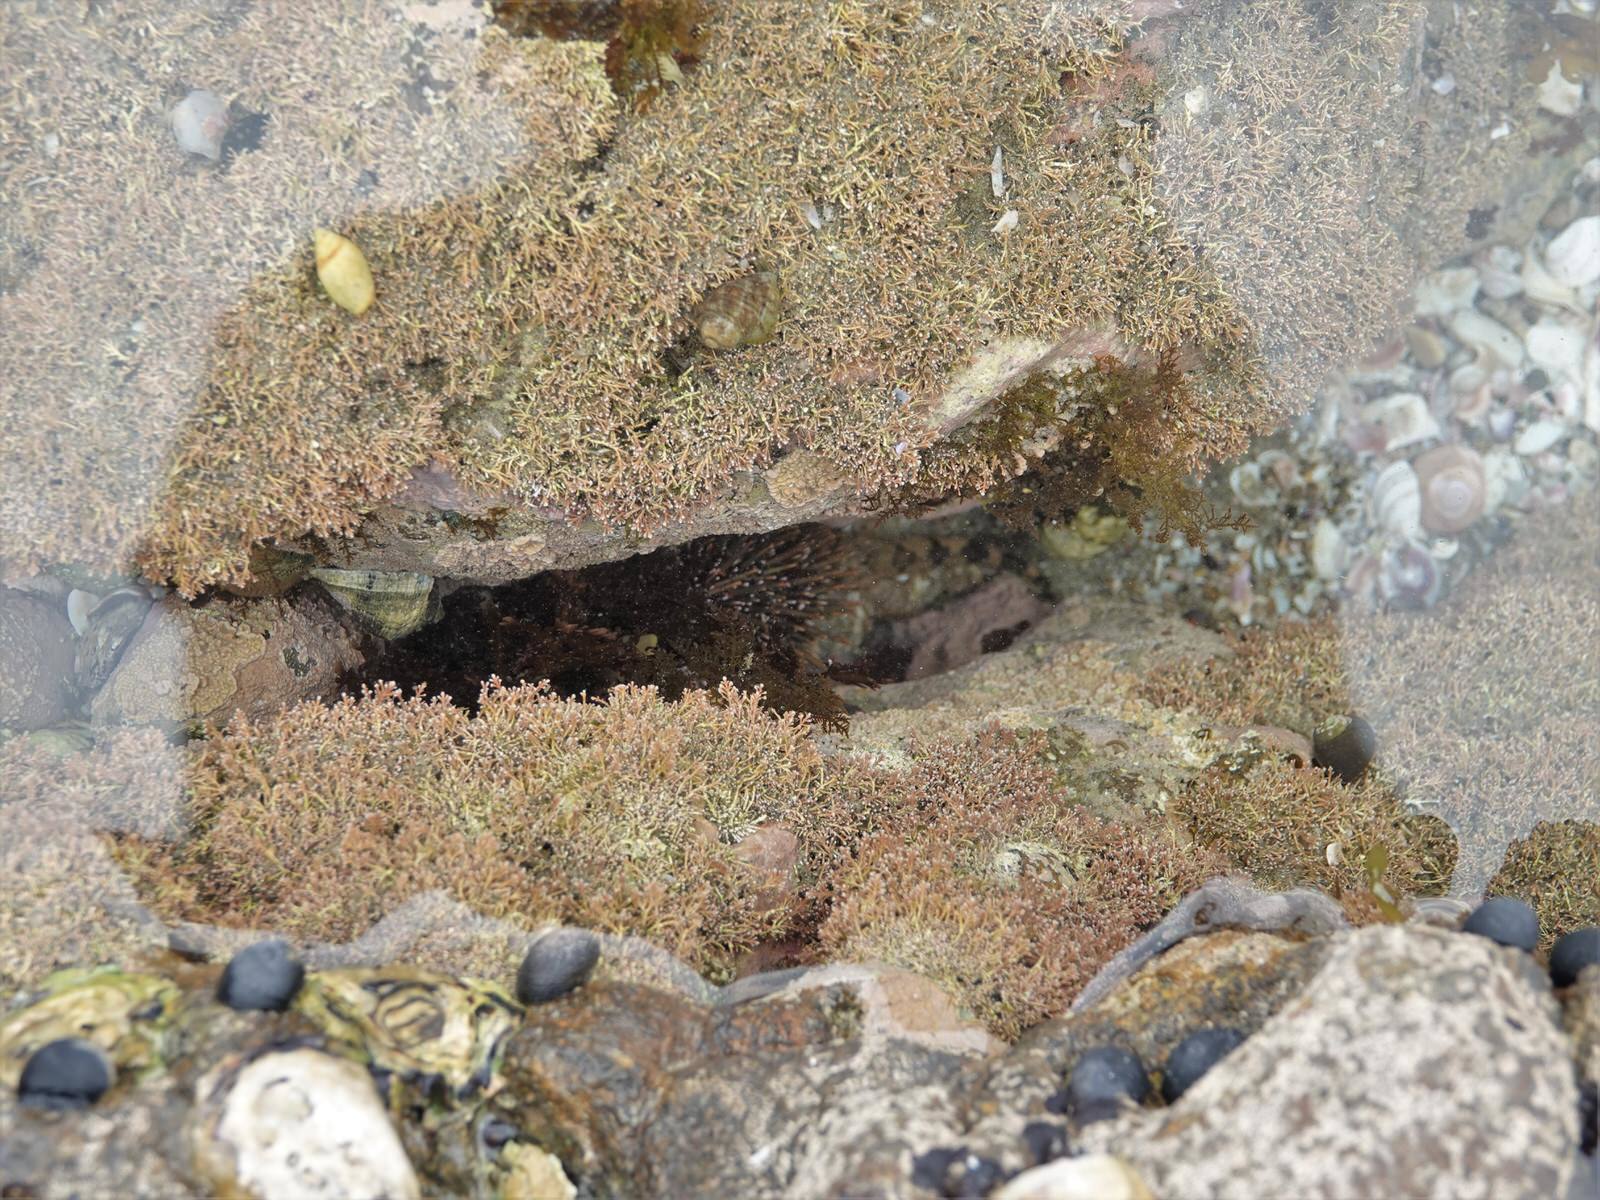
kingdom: Animalia
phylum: Echinodermata
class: Echinoidea
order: Camarodonta
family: Echinometridae
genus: Evechinus
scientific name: Evechinus chloroticus
